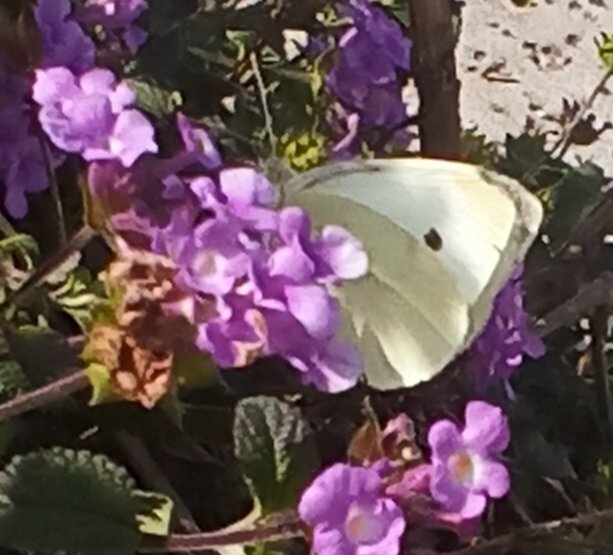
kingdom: Animalia
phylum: Arthropoda
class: Insecta
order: Lepidoptera
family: Pieridae
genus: Pieris
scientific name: Pieris rapae
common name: Small white
